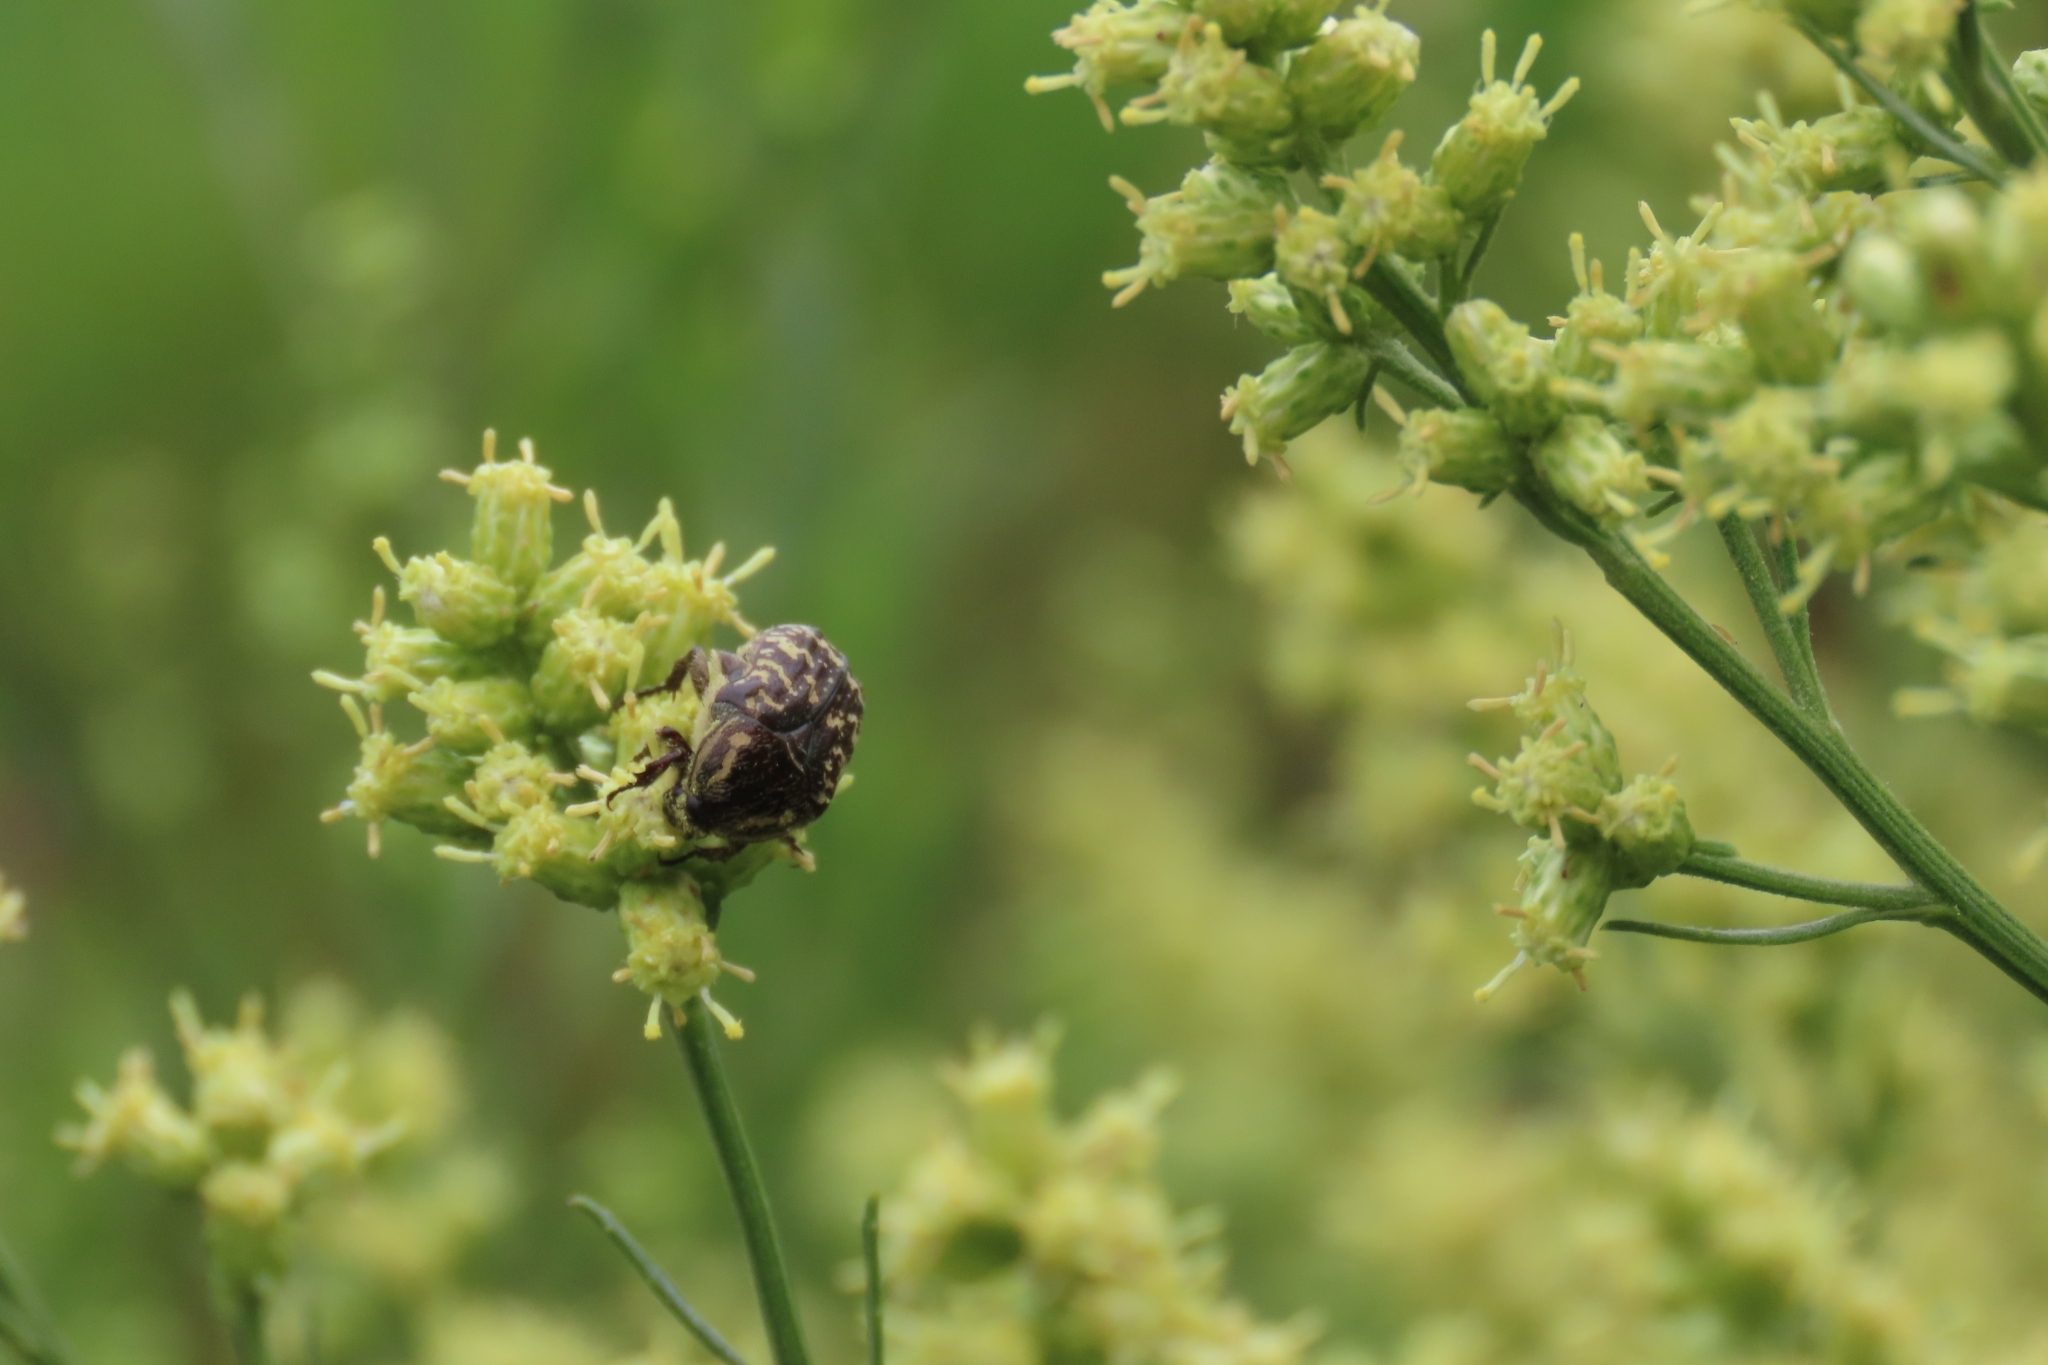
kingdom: Animalia
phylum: Arthropoda
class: Insecta
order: Coleoptera
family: Scarabaeidae
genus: Euphoria
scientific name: Euphoria lurida
